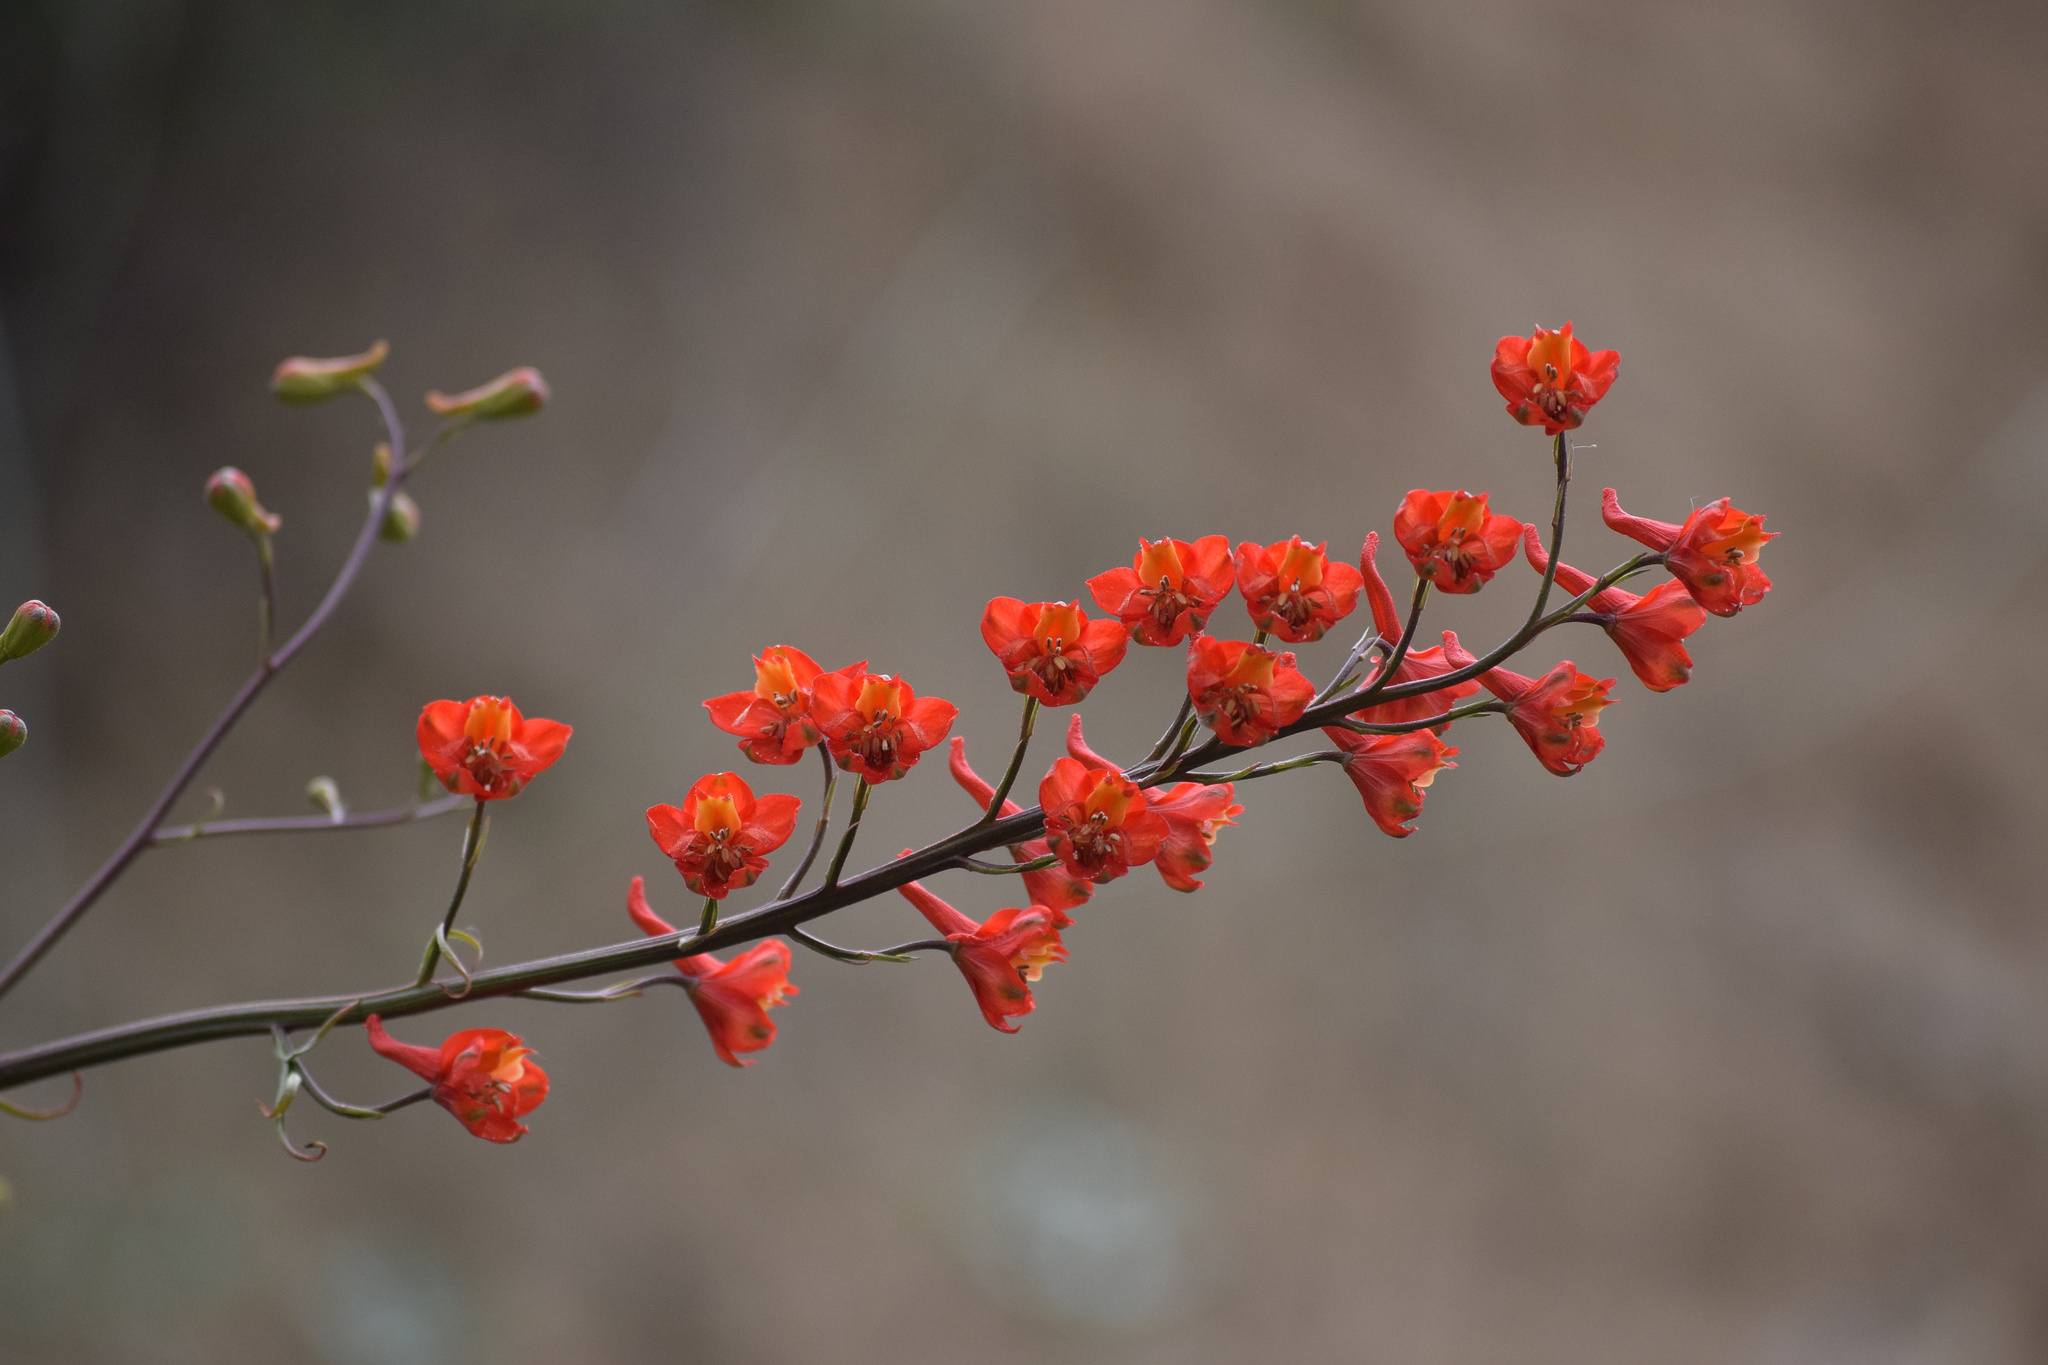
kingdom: Plantae
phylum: Tracheophyta
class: Magnoliopsida
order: Ranunculales
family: Ranunculaceae
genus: Delphinium
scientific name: Delphinium cardinale
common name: Scarlet larkspur
